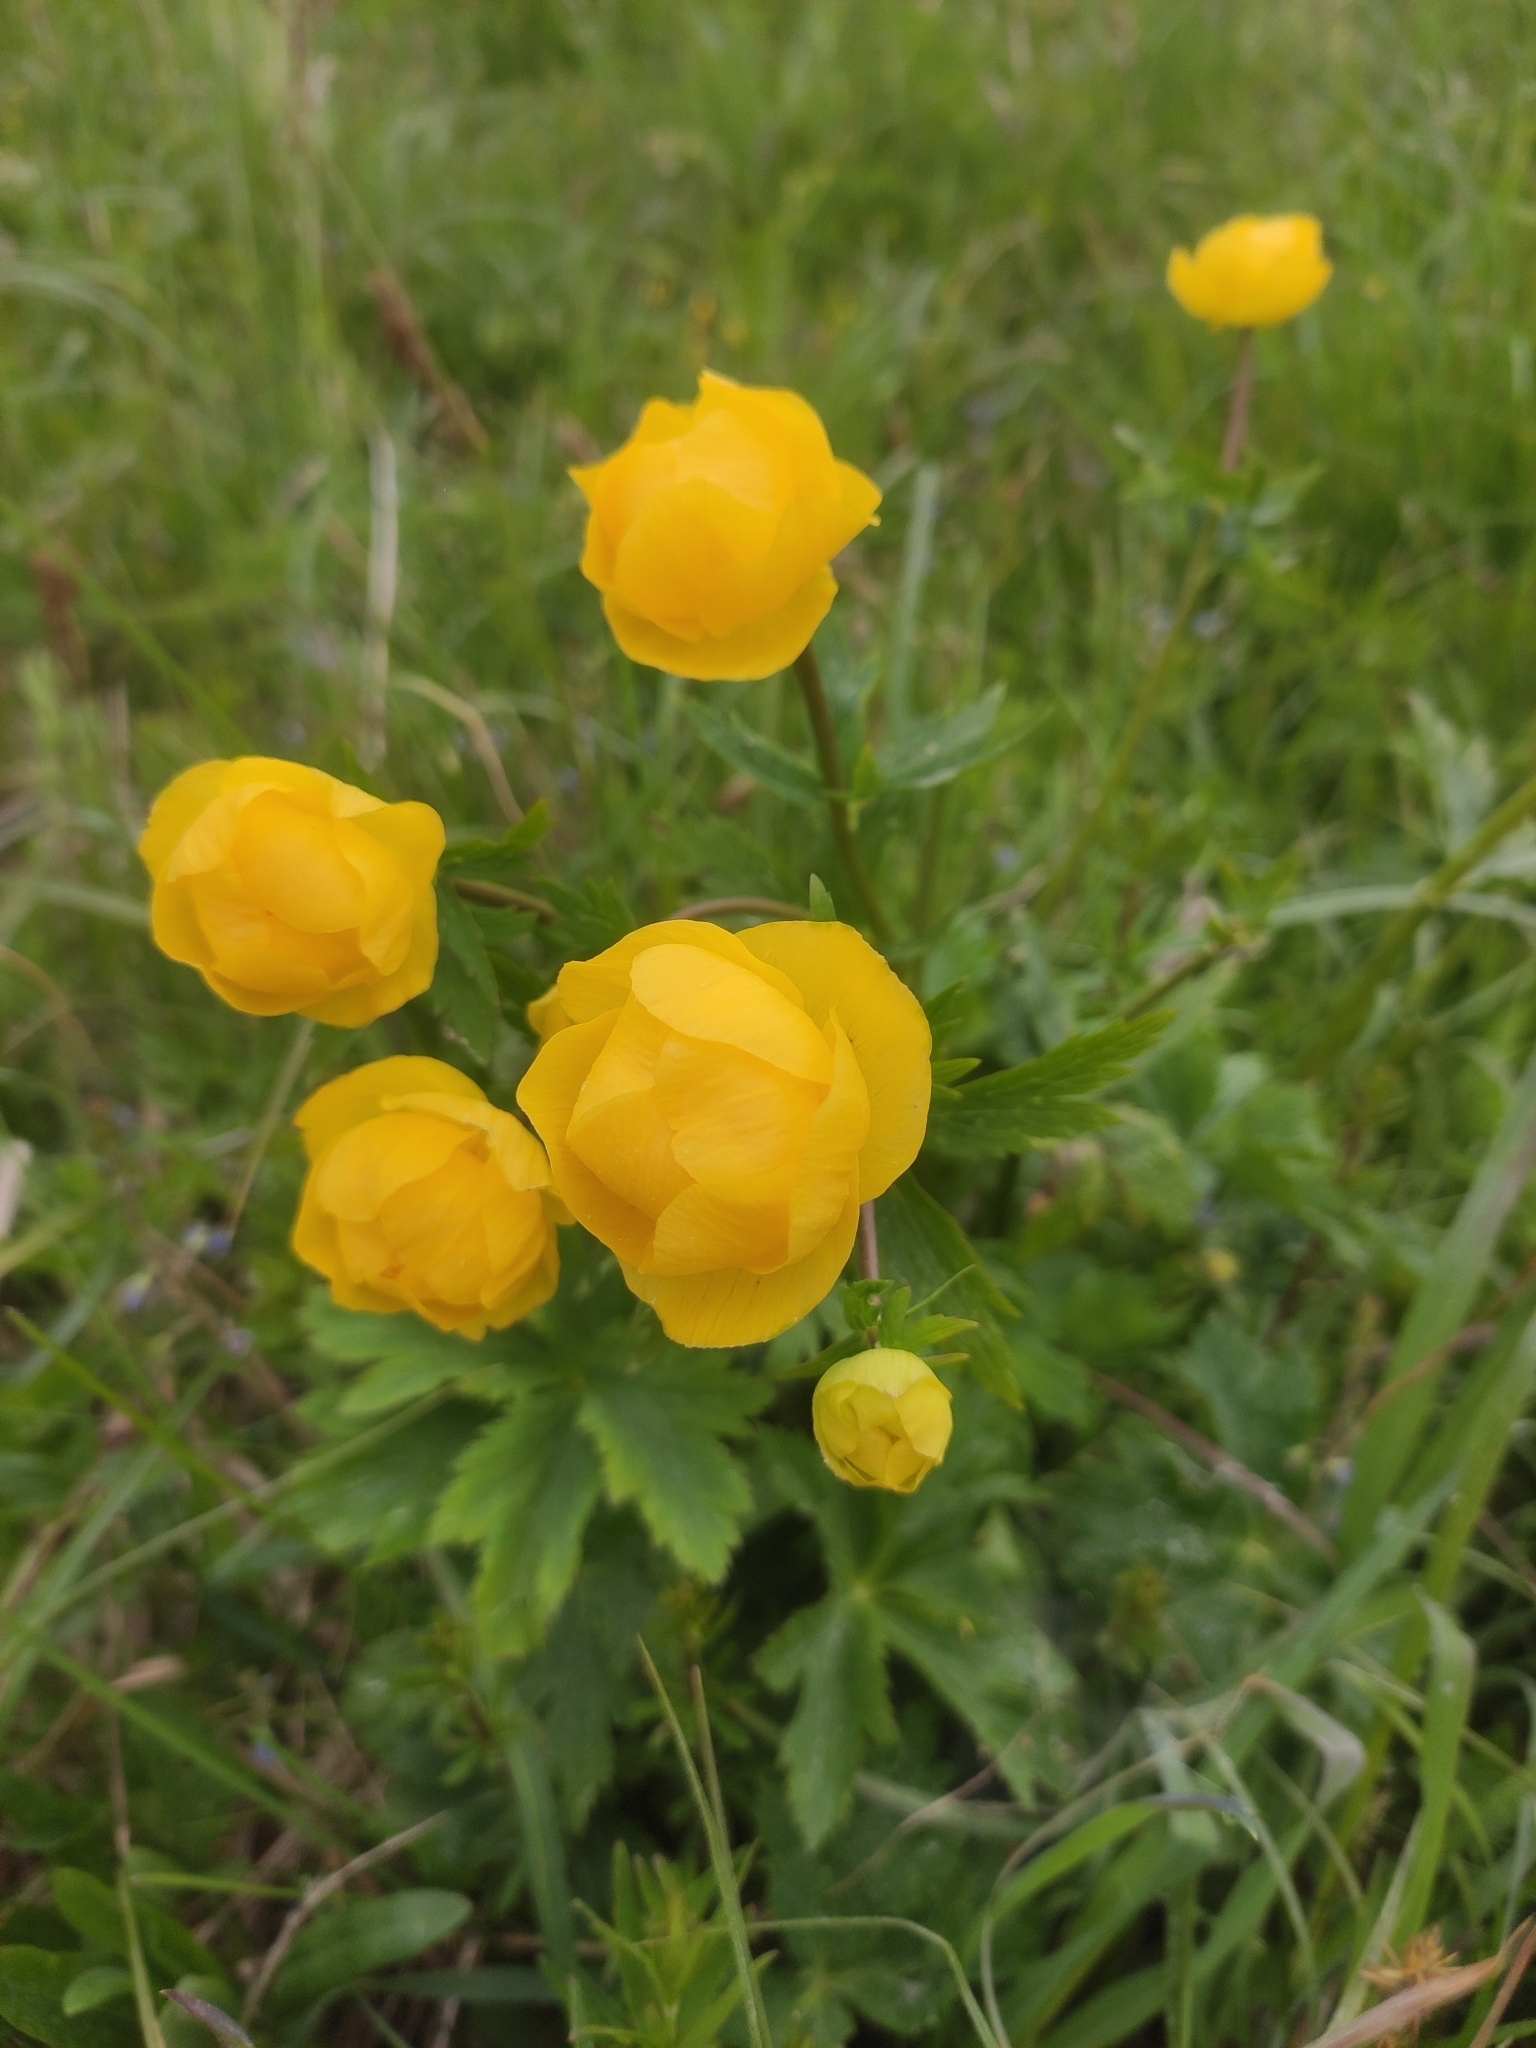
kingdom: Plantae
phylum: Tracheophyta
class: Magnoliopsida
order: Ranunculales
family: Ranunculaceae
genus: Trollius
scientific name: Trollius europaeus
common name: European globeflower
